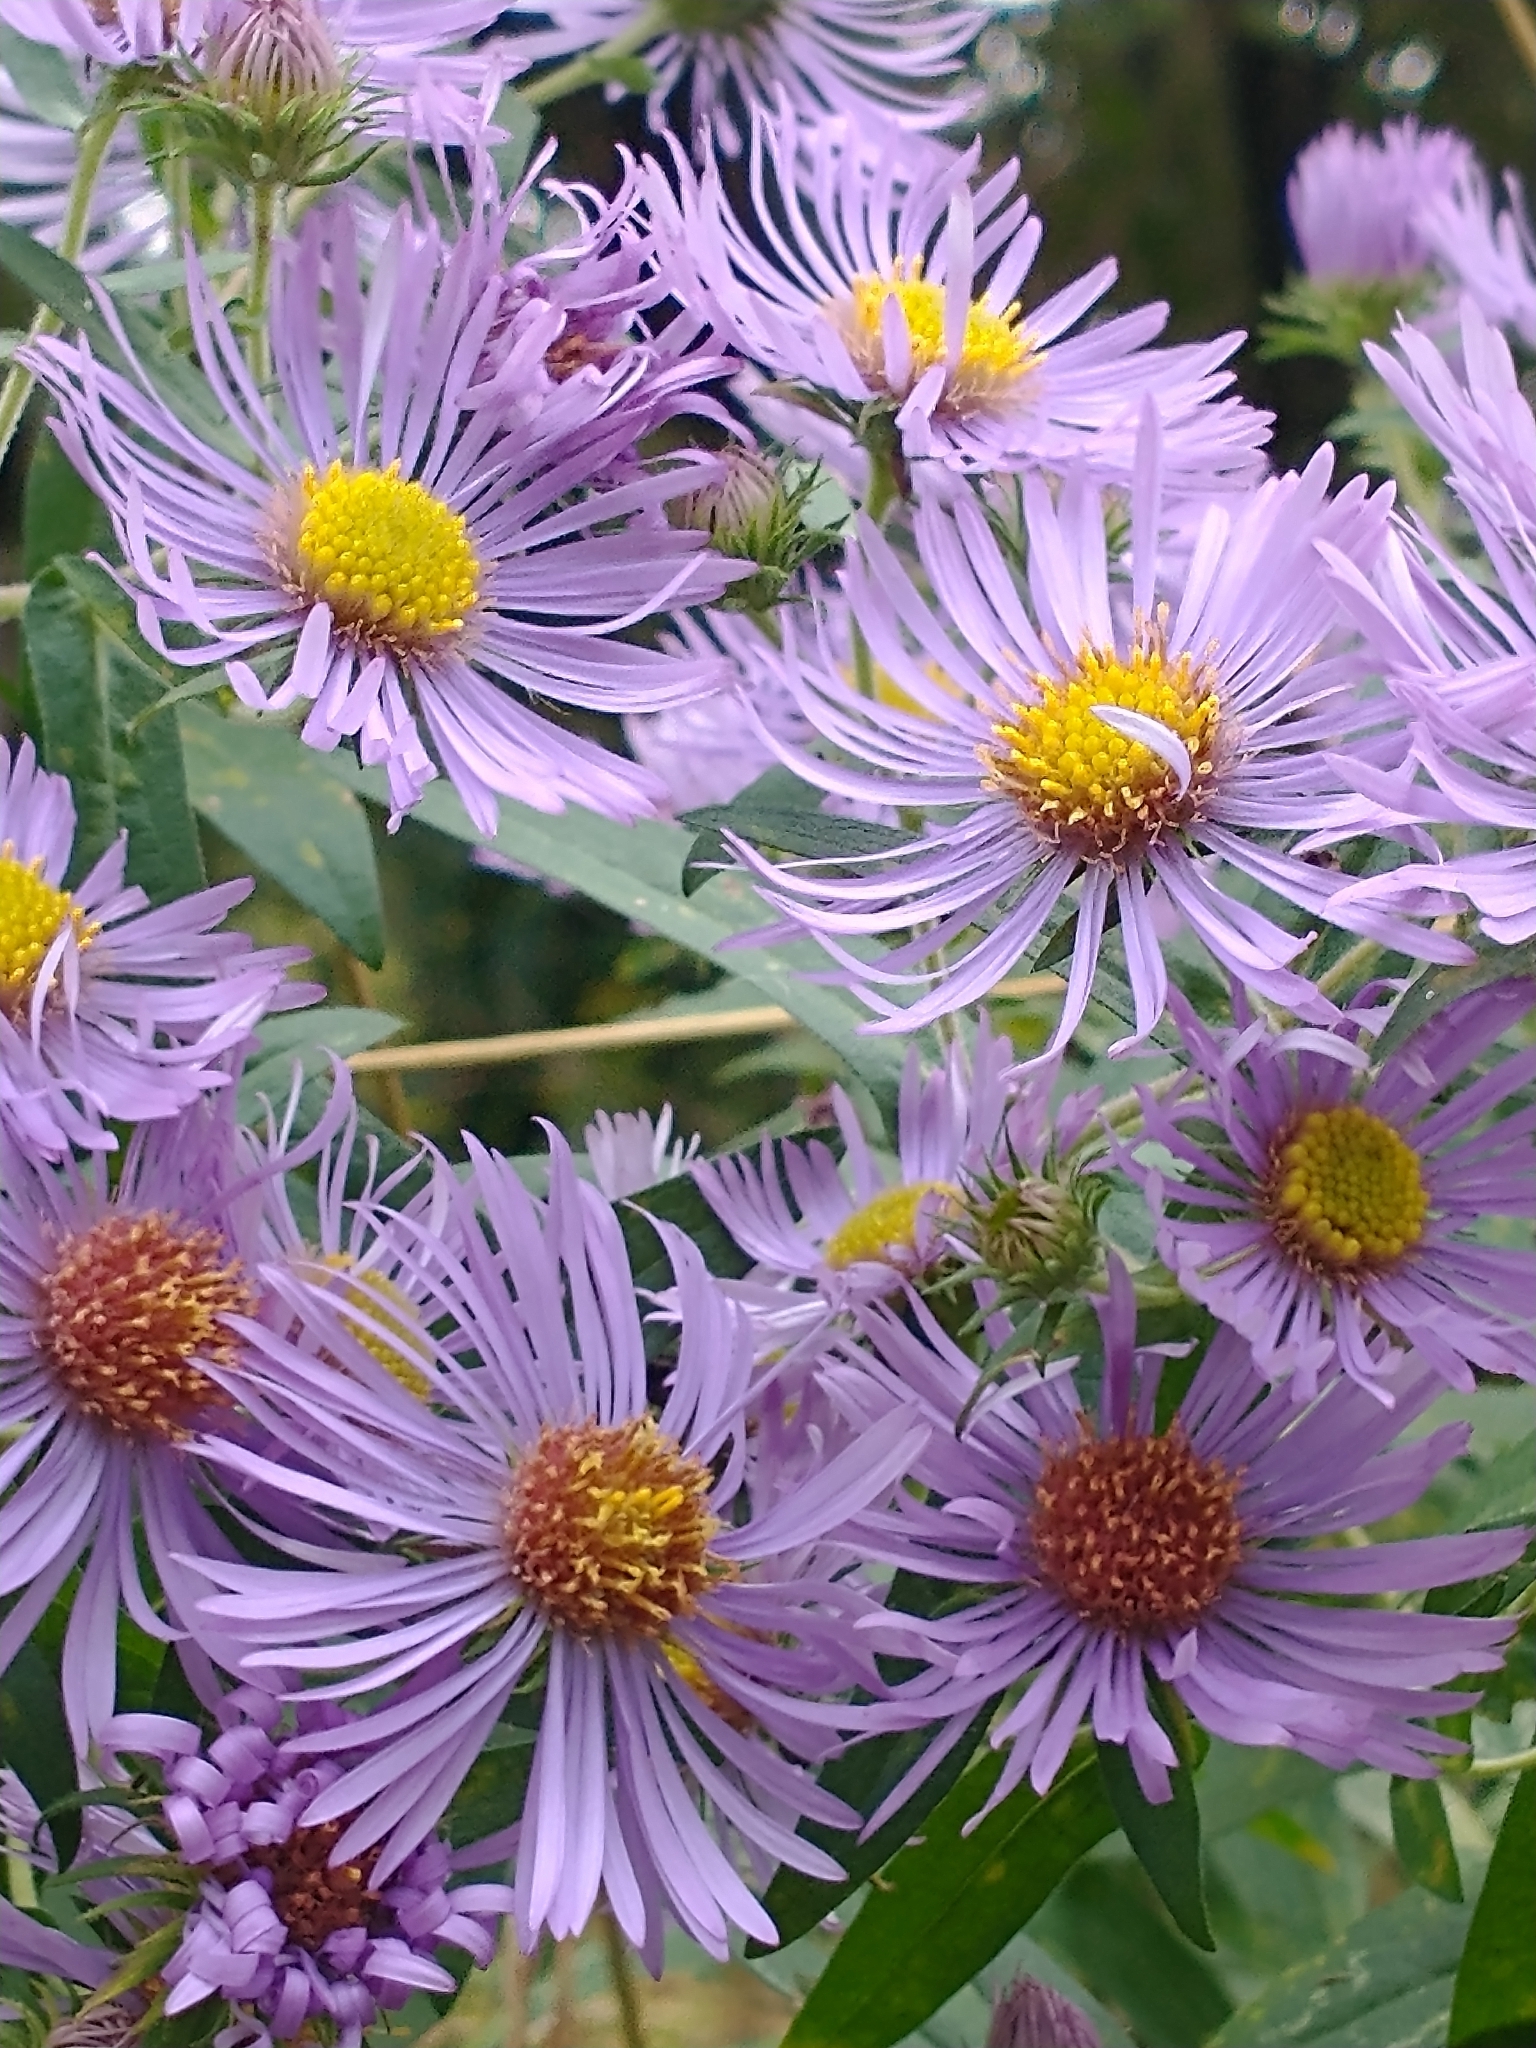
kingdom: Plantae
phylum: Tracheophyta
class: Magnoliopsida
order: Asterales
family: Asteraceae
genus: Symphyotrichum
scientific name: Symphyotrichum novae-angliae
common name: Michaelmas daisy
